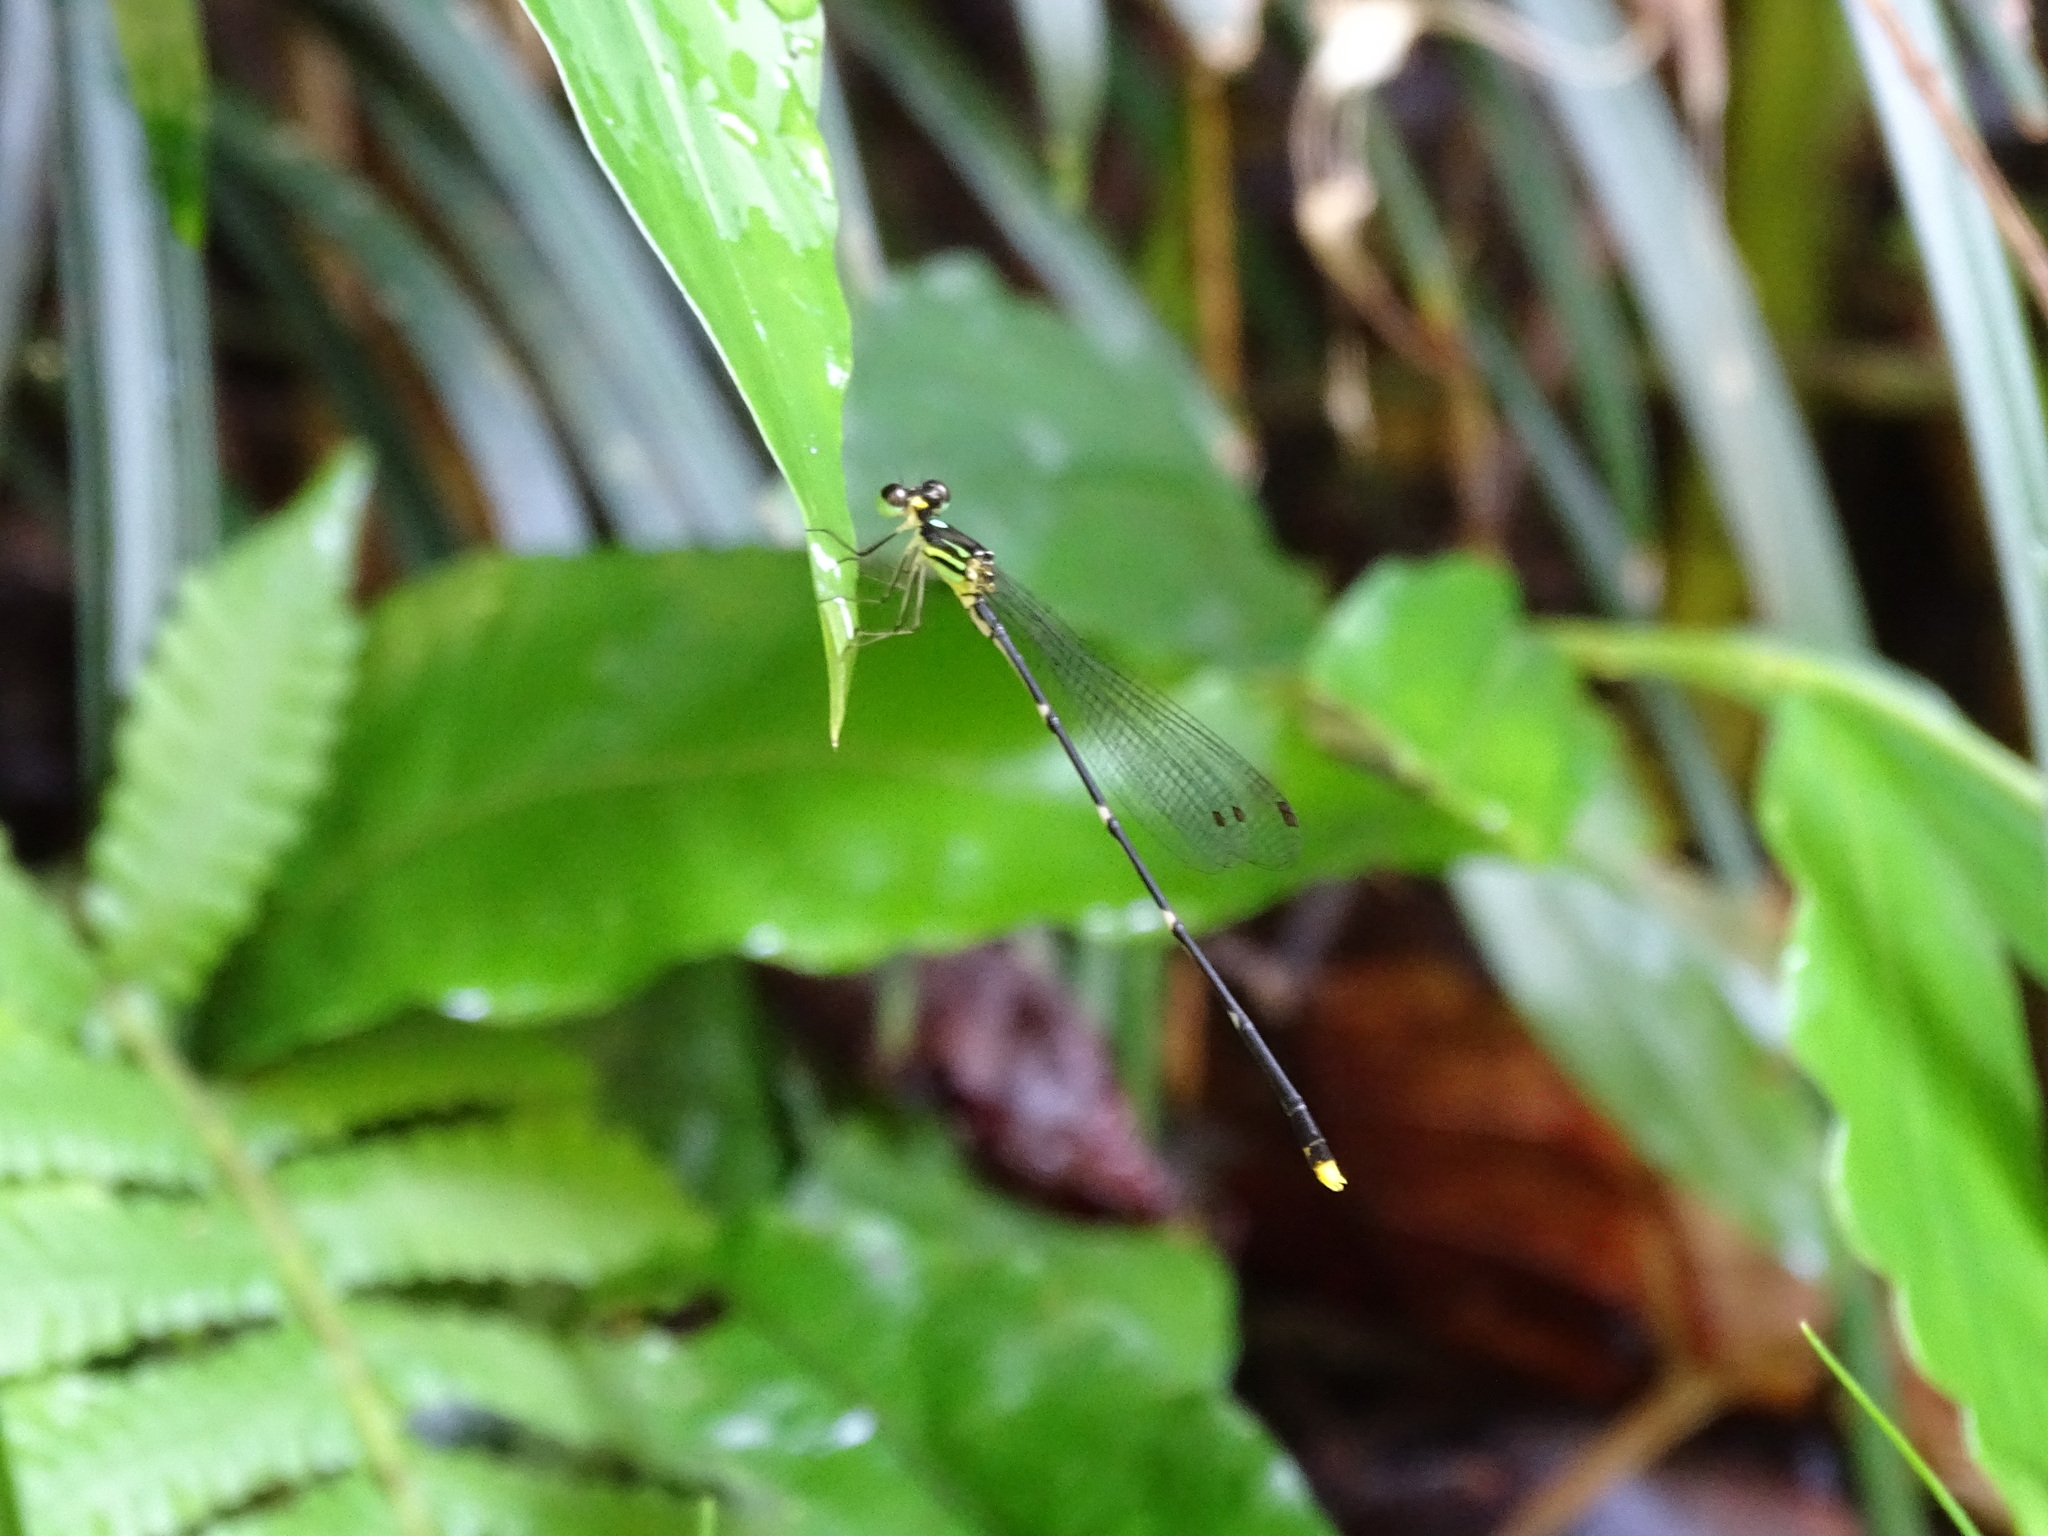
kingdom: Animalia
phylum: Arthropoda
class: Insecta
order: Odonata
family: Platycnemididae
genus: Coeliccia
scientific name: Coeliccia flavicauda
